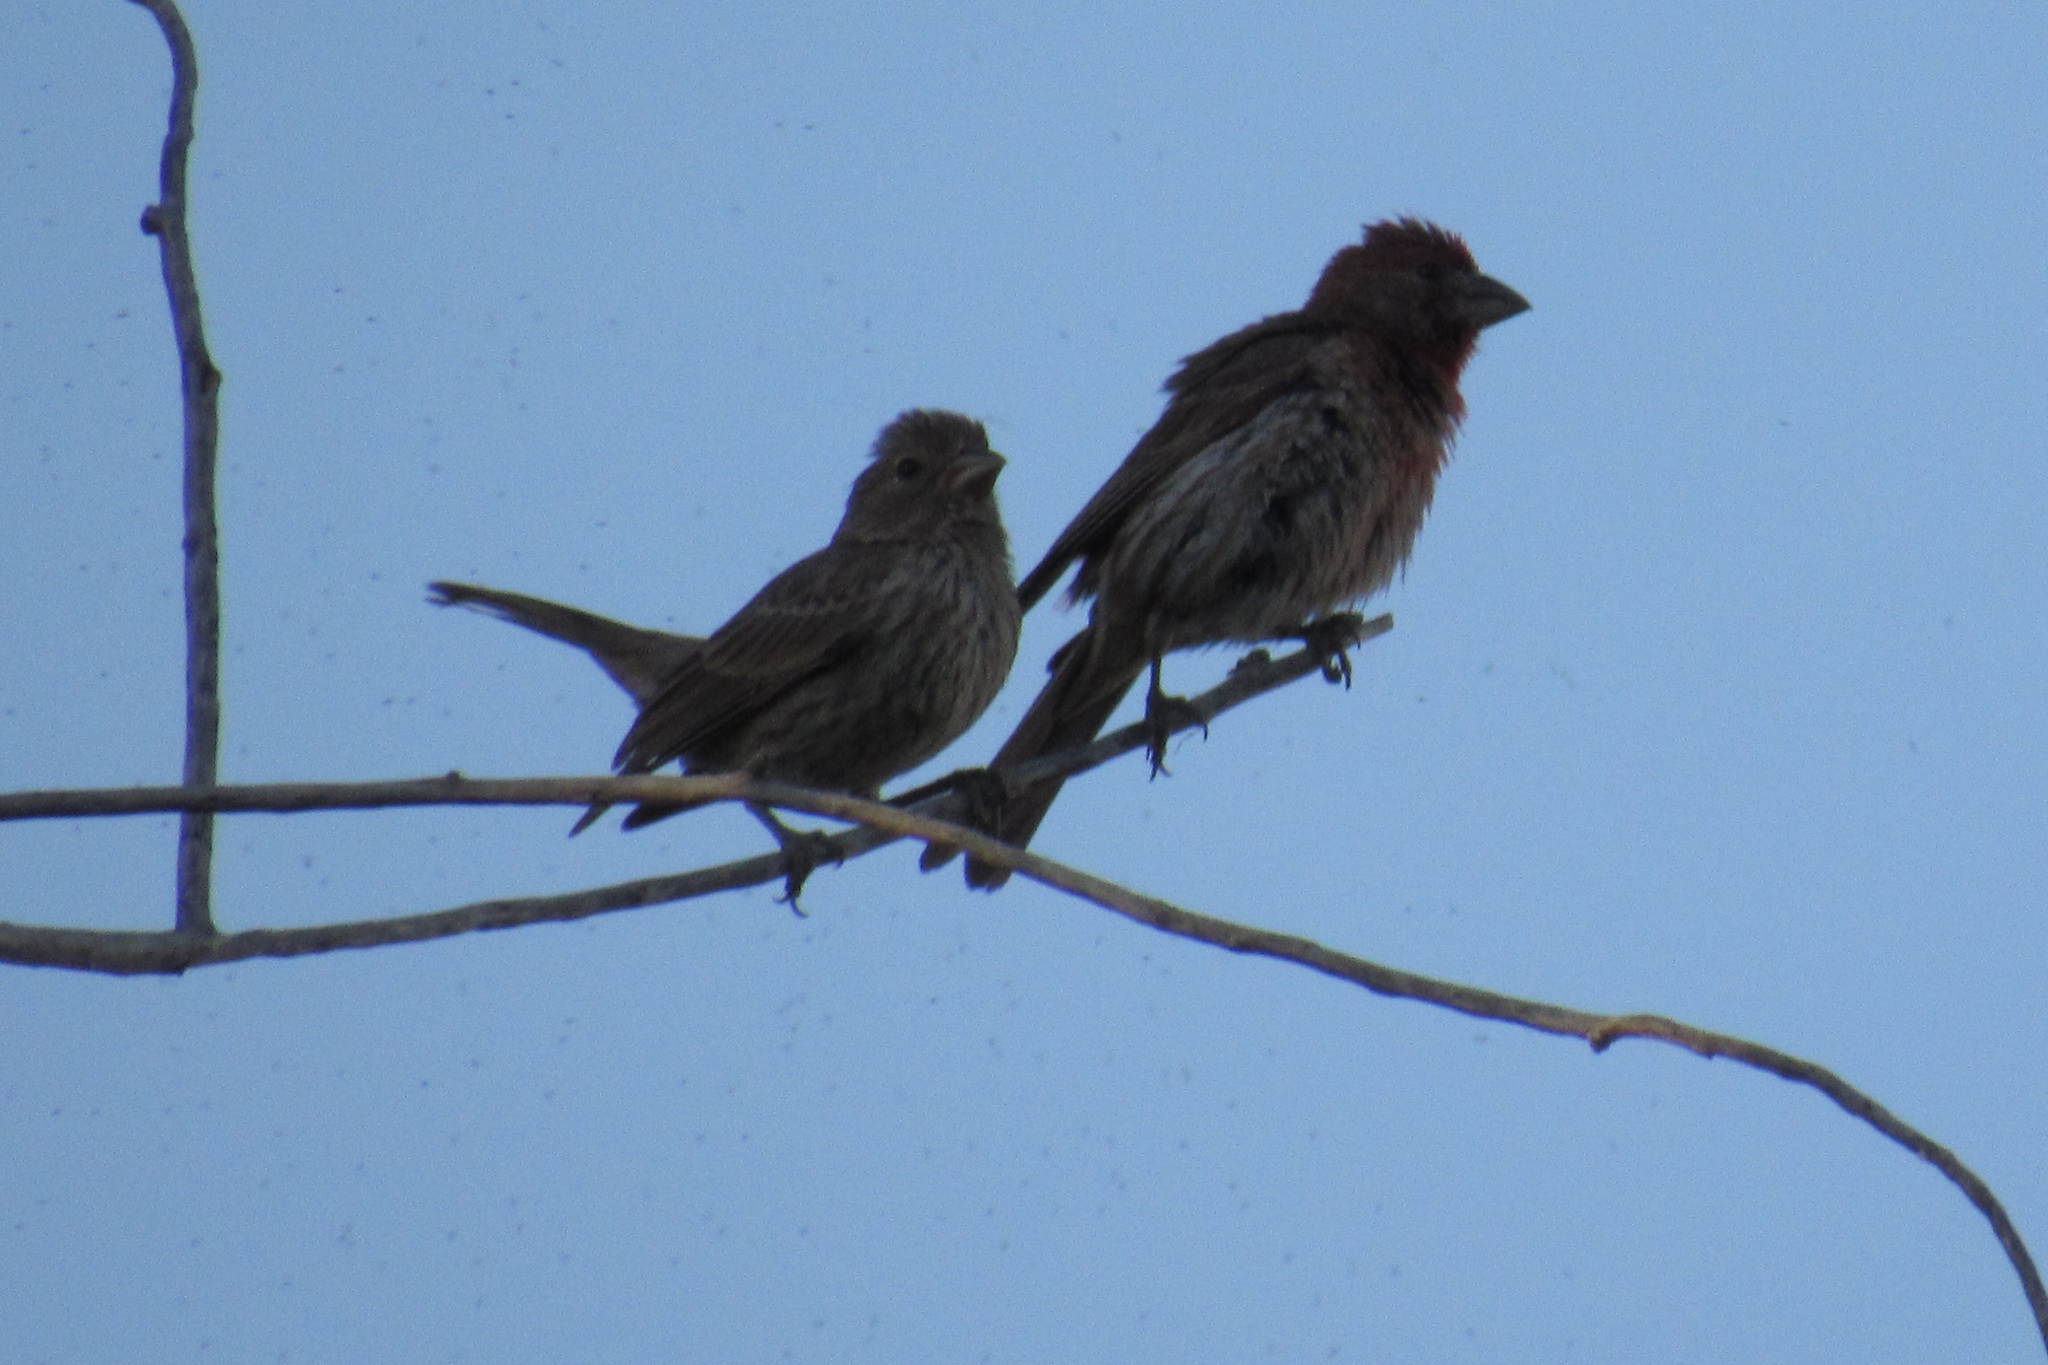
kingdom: Animalia
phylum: Chordata
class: Aves
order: Passeriformes
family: Fringillidae
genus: Haemorhous
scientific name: Haemorhous mexicanus
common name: House finch
